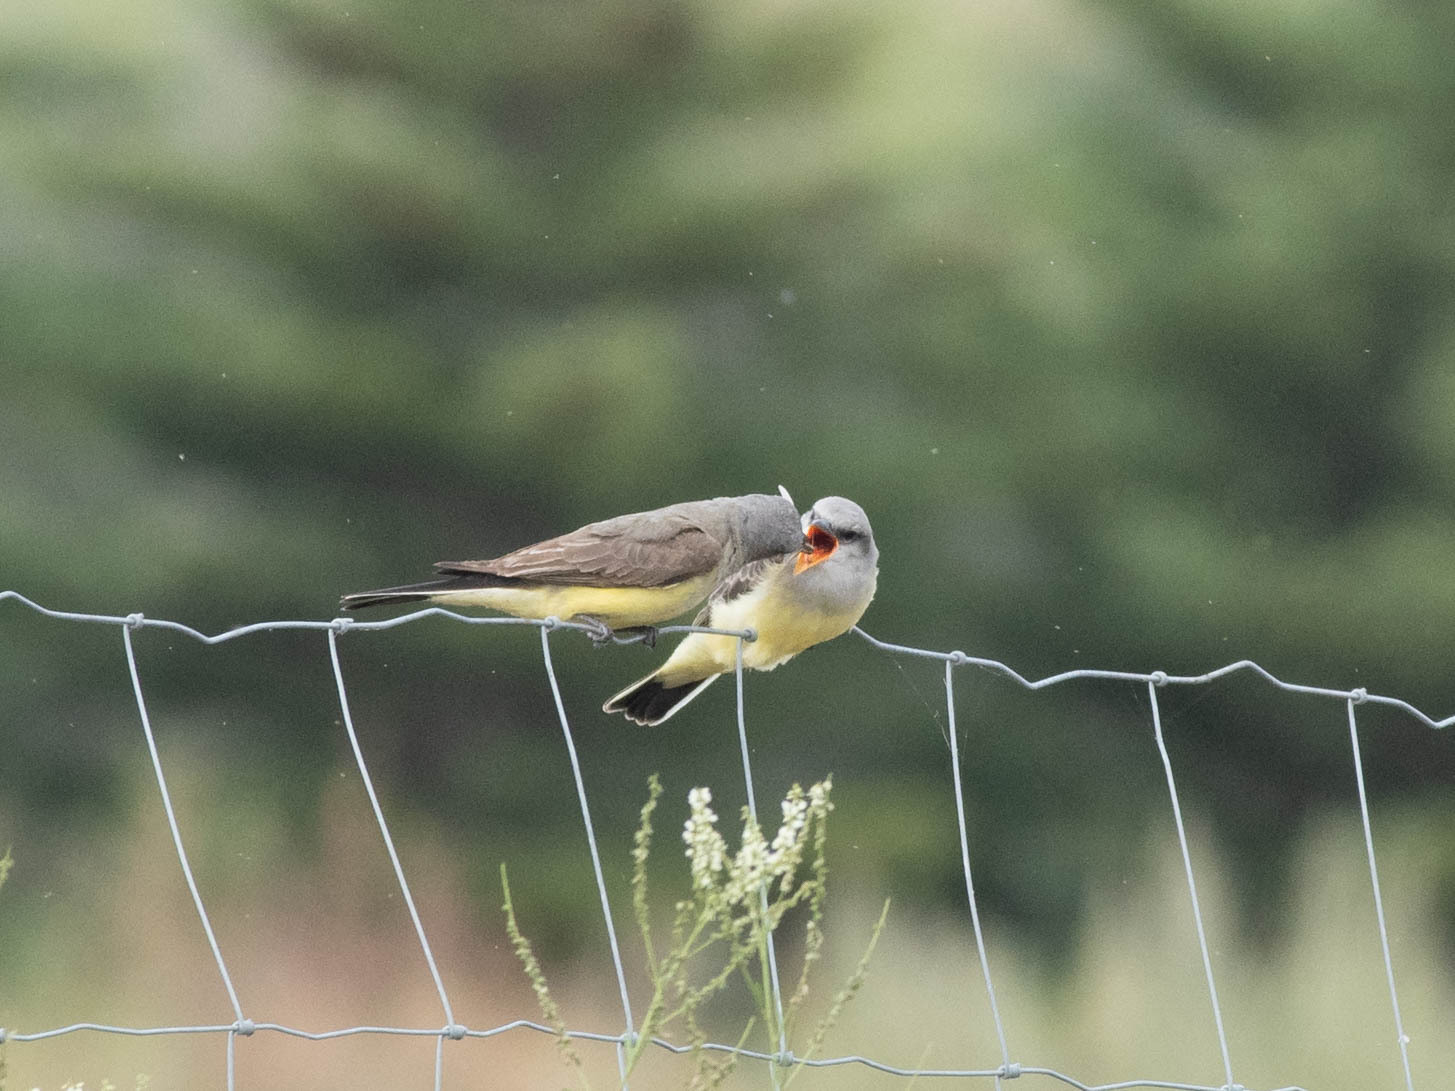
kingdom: Animalia
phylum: Chordata
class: Aves
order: Passeriformes
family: Tyrannidae
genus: Tyrannus
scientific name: Tyrannus verticalis
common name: Western kingbird
